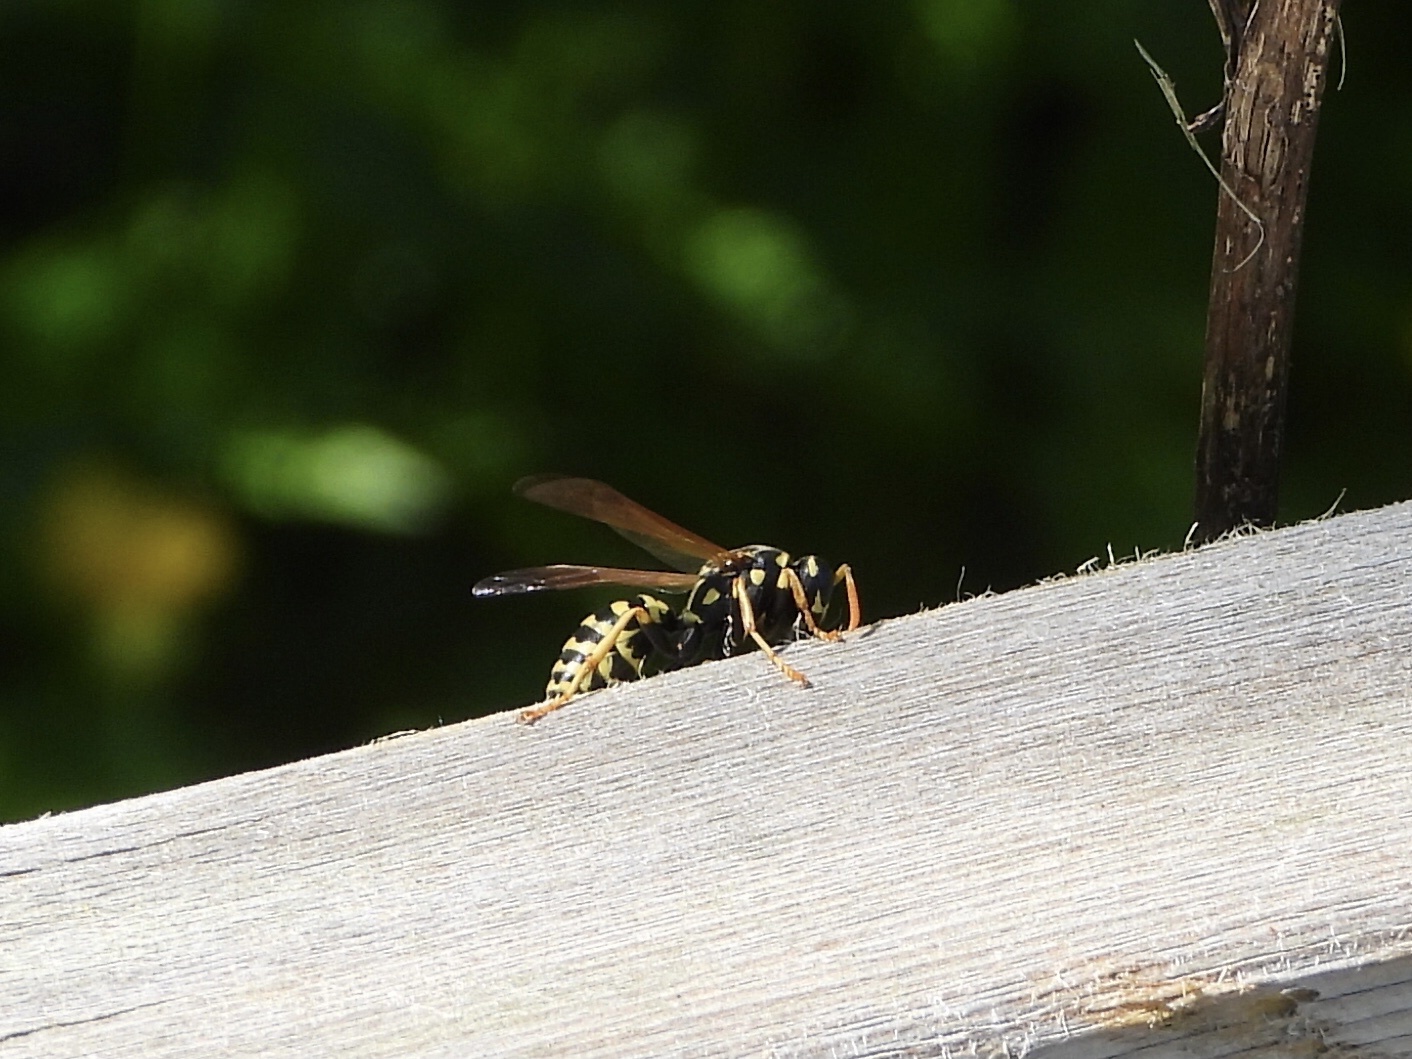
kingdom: Animalia
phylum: Arthropoda
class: Insecta
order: Hymenoptera
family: Eumenidae
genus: Polistes
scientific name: Polistes dominula
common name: Paper wasp
